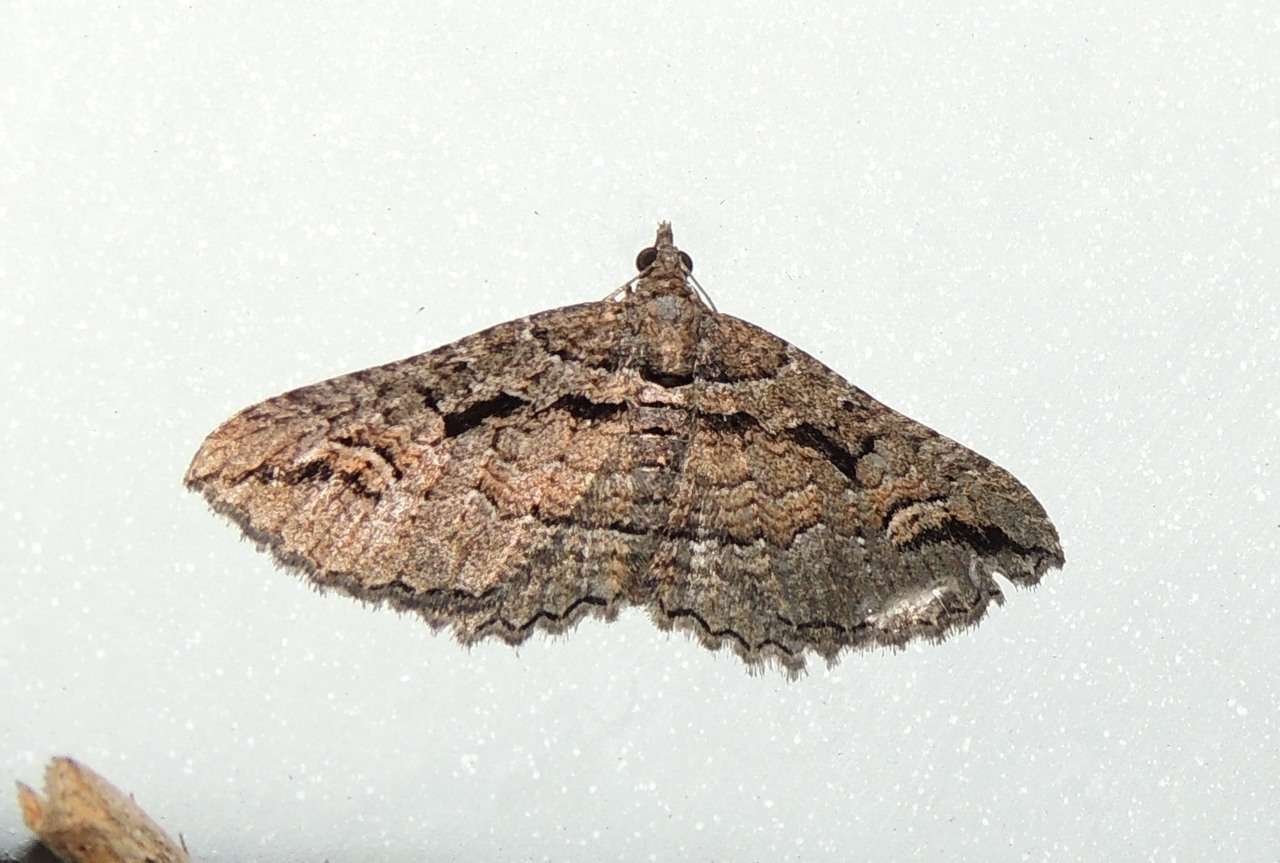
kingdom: Animalia
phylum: Arthropoda
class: Insecta
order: Lepidoptera
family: Geometridae
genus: Chrysolarentia
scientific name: Chrysolarentia plagiocausta
